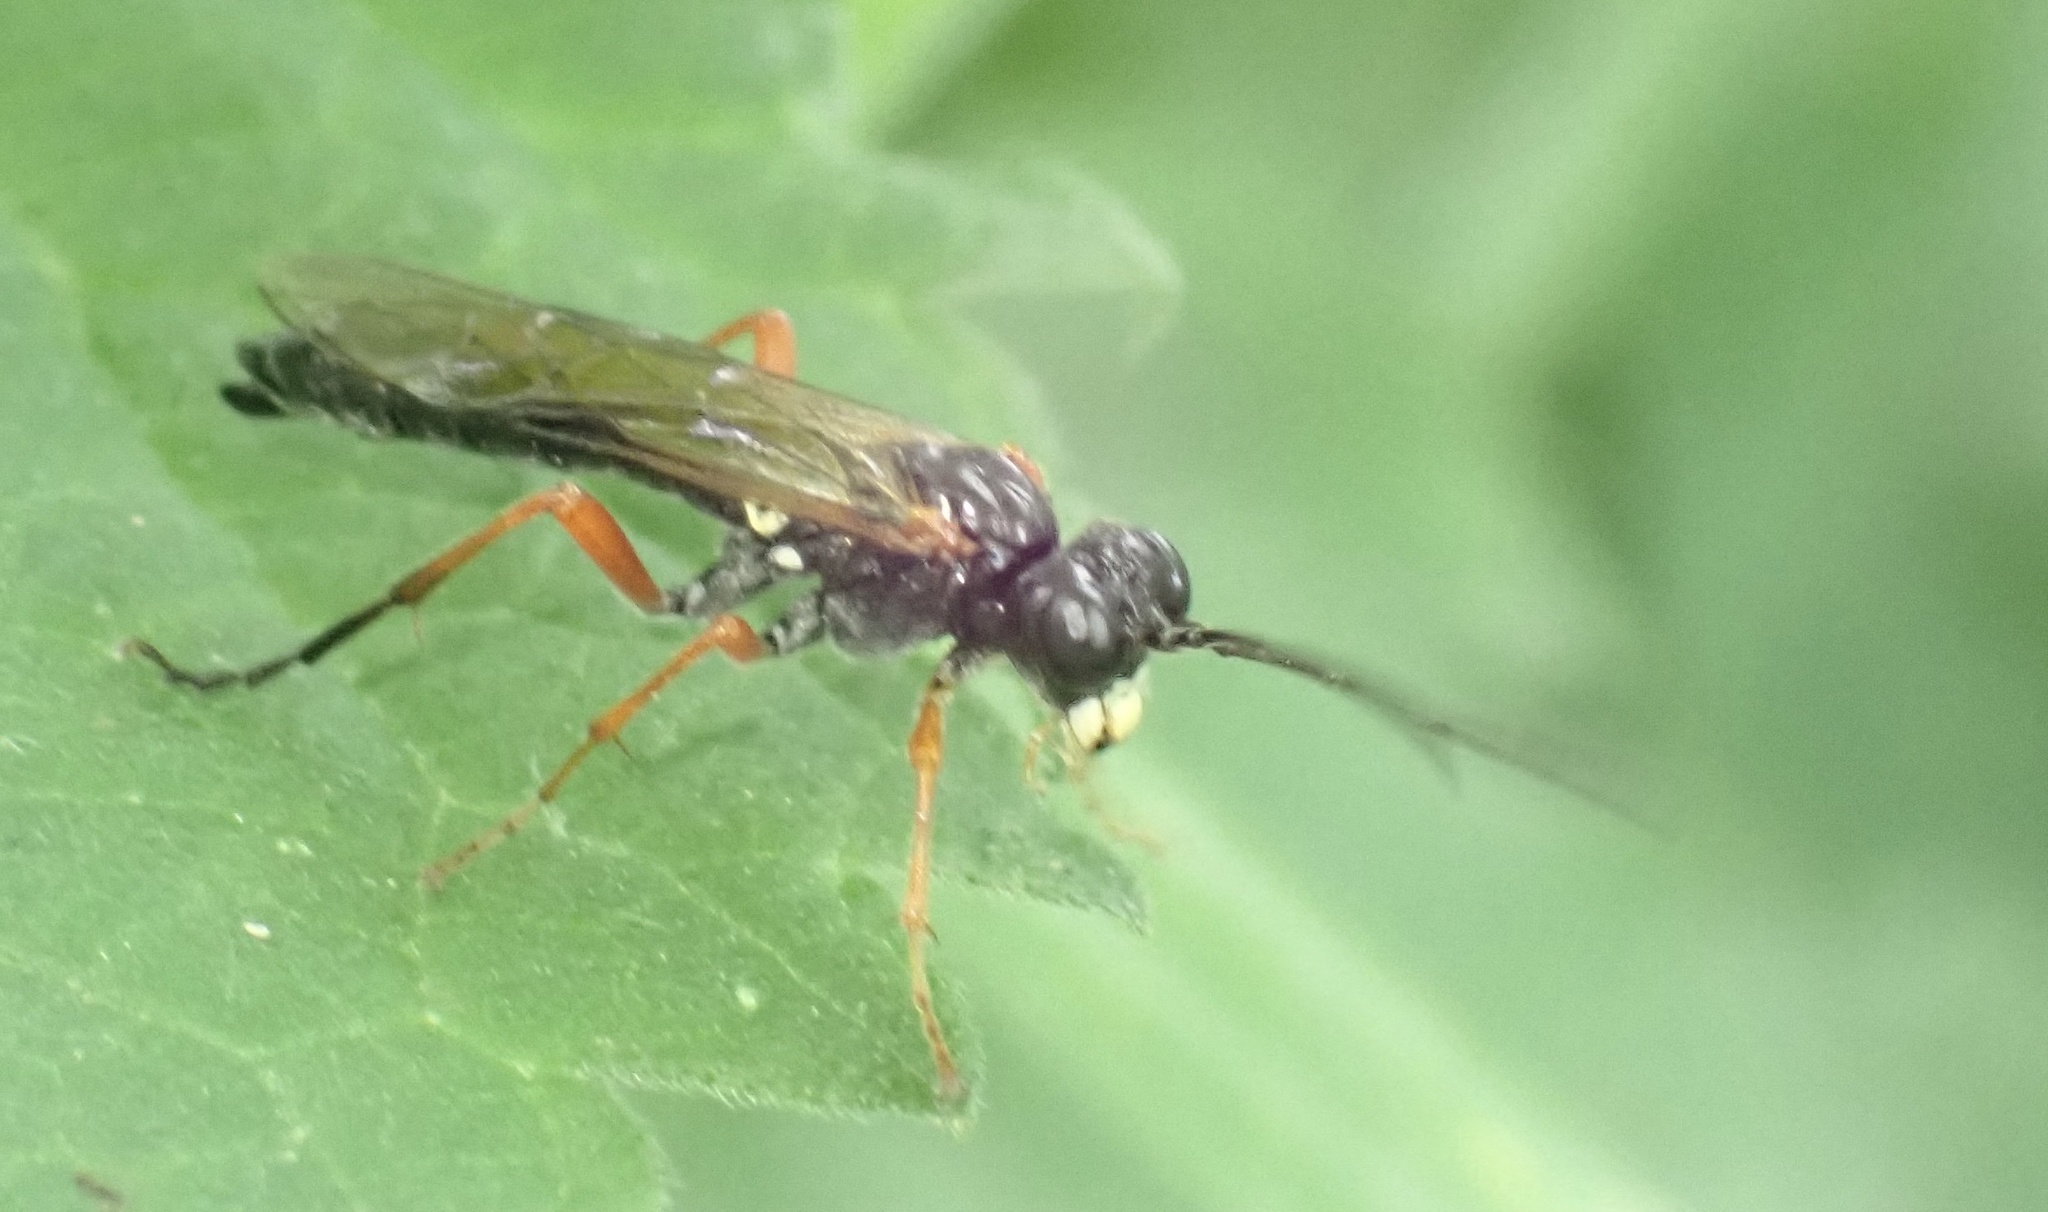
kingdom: Animalia
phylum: Arthropoda
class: Insecta
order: Hymenoptera
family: Tenthredinidae
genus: Tenthredo
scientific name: Tenthredo atra
